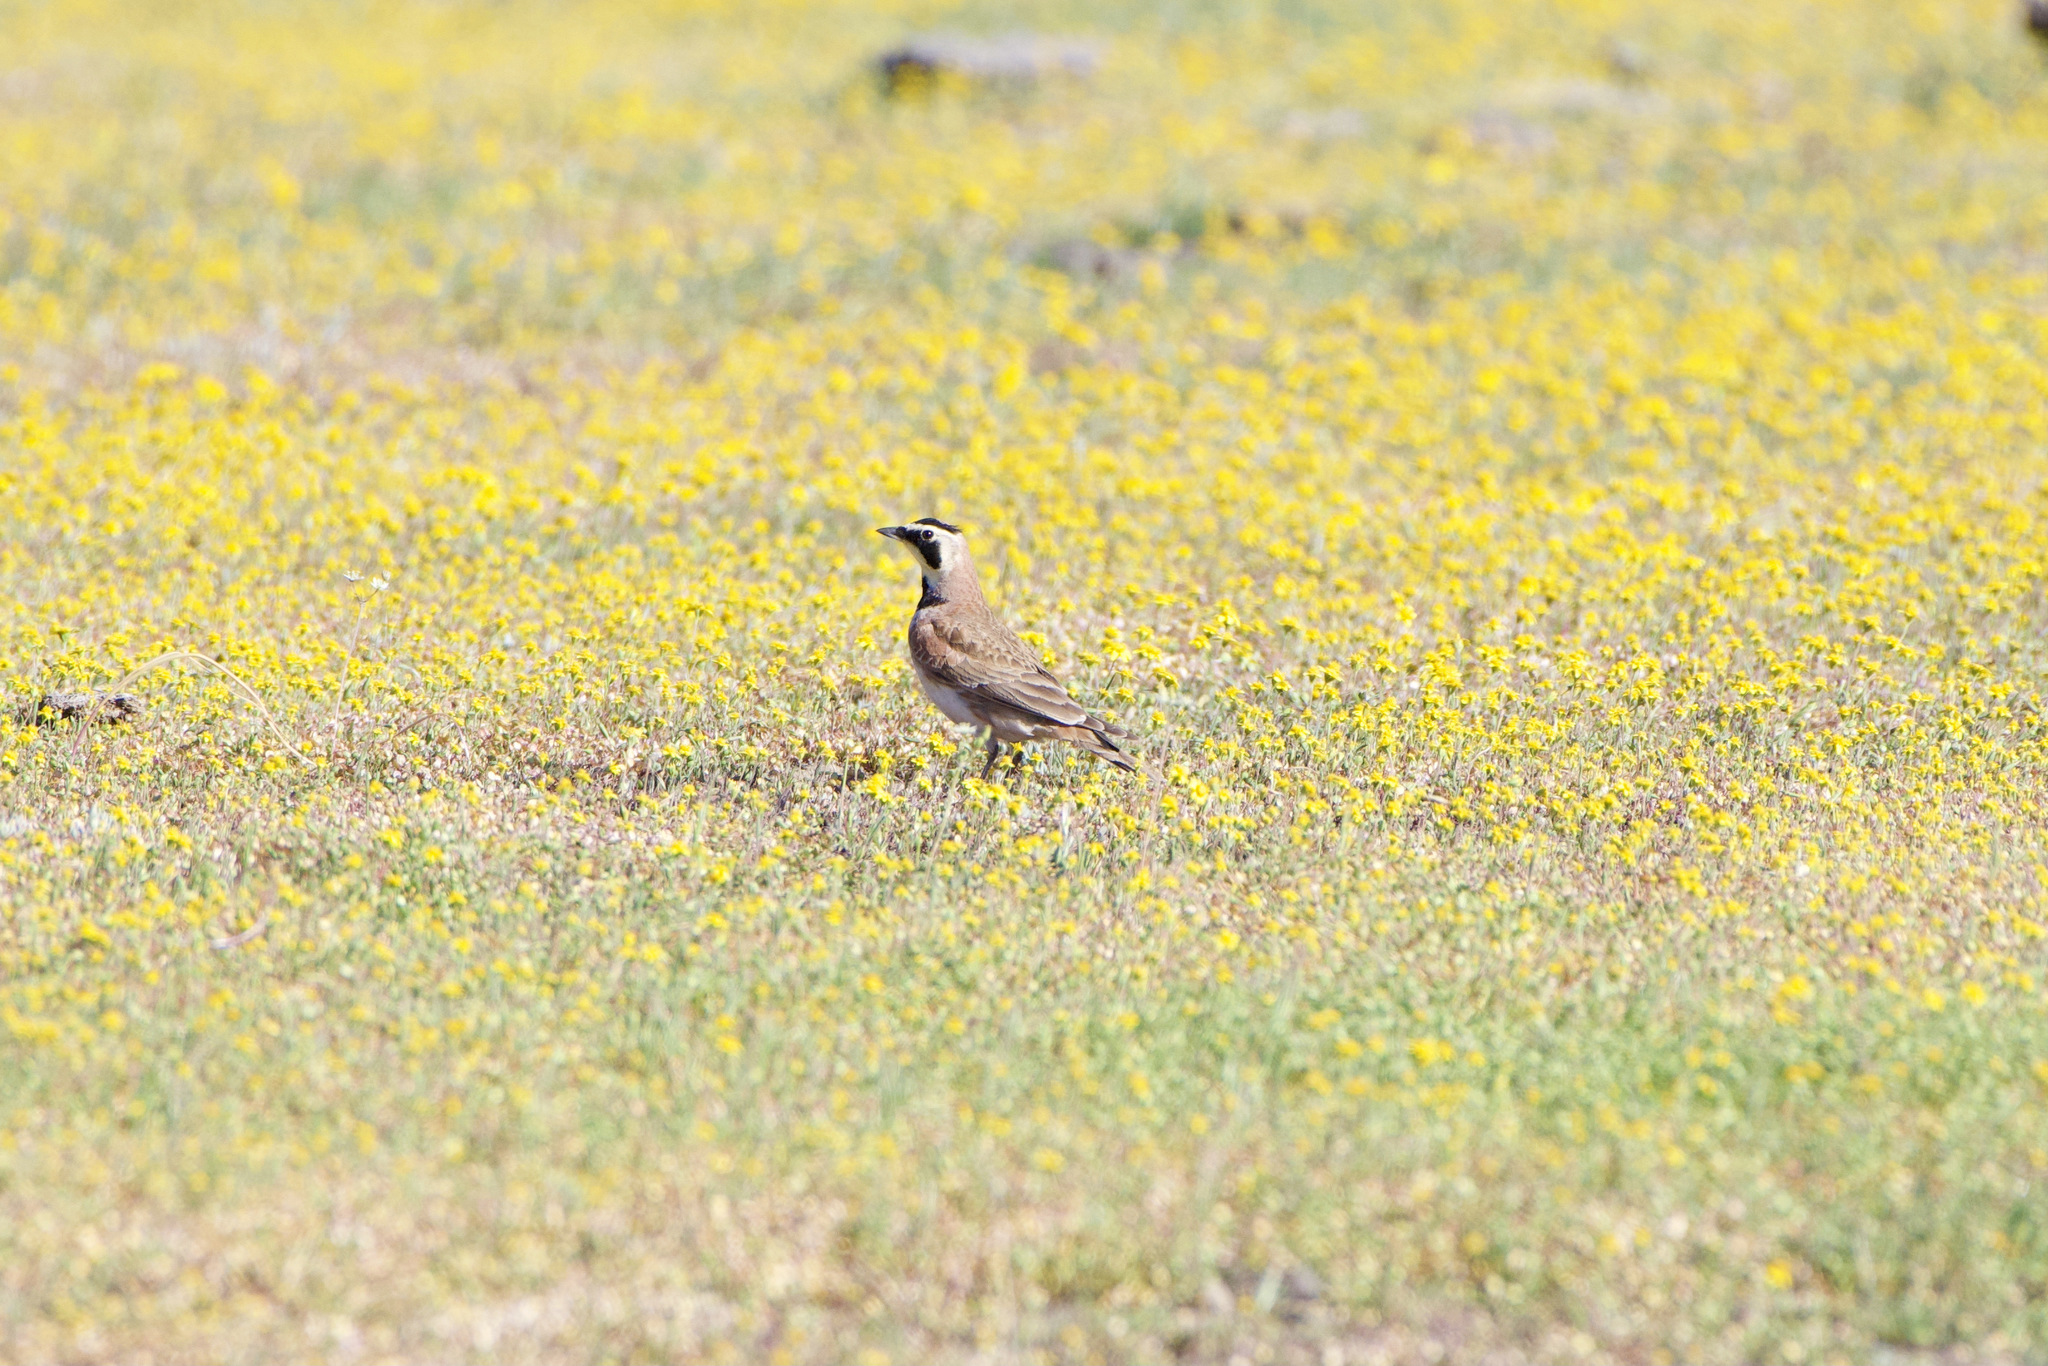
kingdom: Animalia
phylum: Chordata
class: Aves
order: Passeriformes
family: Alaudidae
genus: Eremophila
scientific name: Eremophila alpestris
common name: Horned lark
